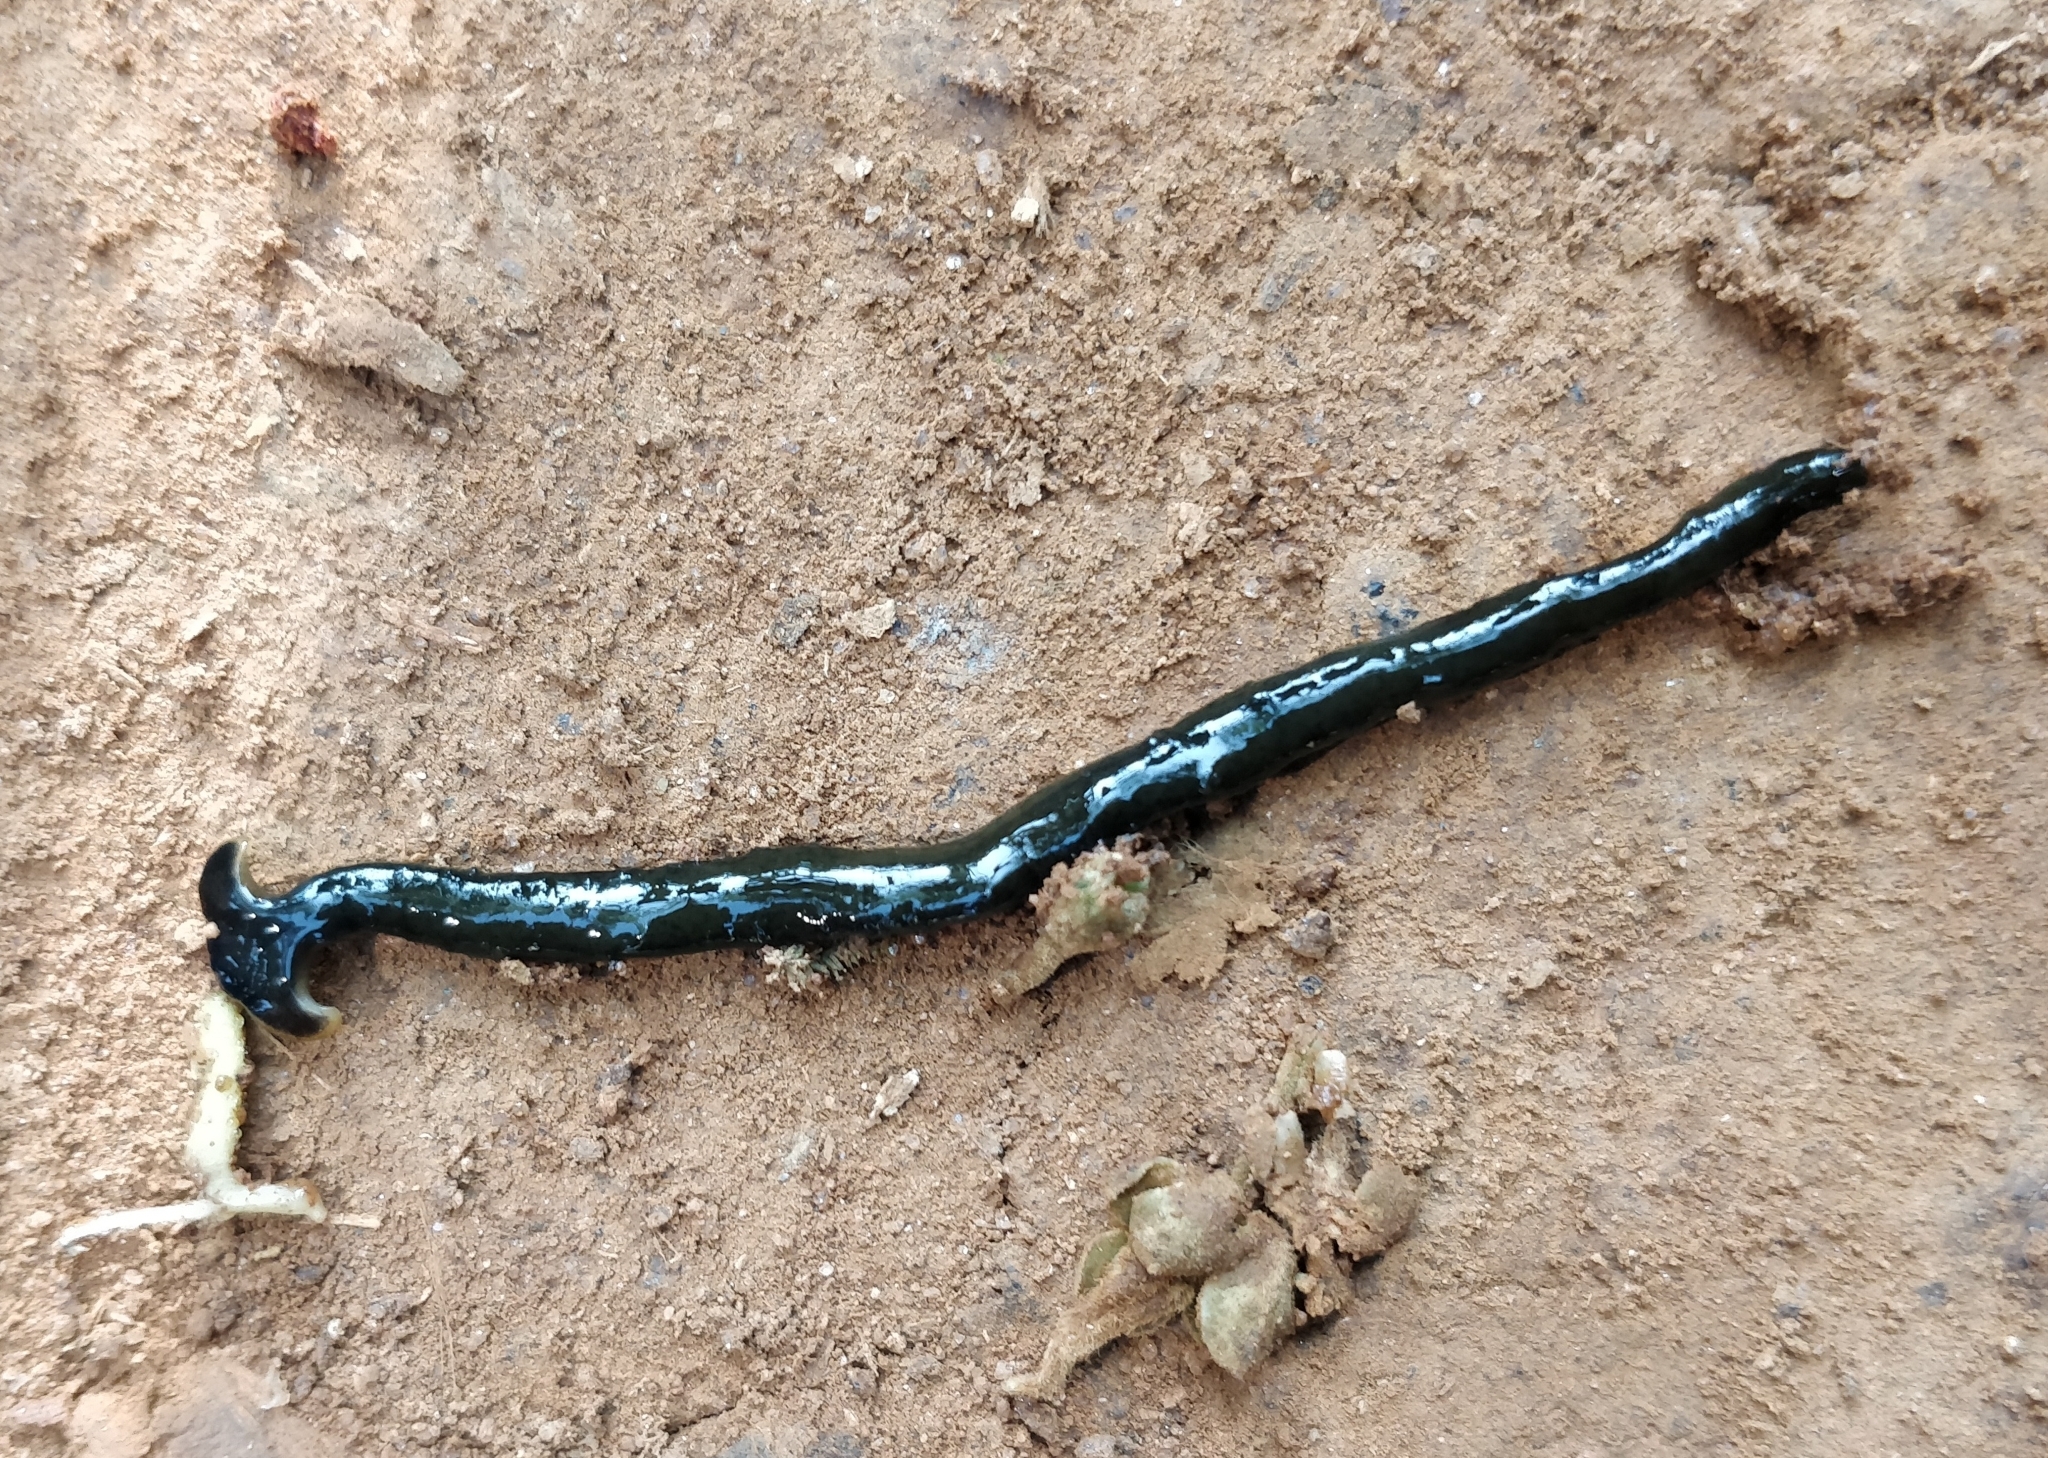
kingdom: Animalia
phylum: Platyhelminthes
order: Tricladida
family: Geoplanidae
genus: Bipalium
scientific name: Bipalium univittatum
